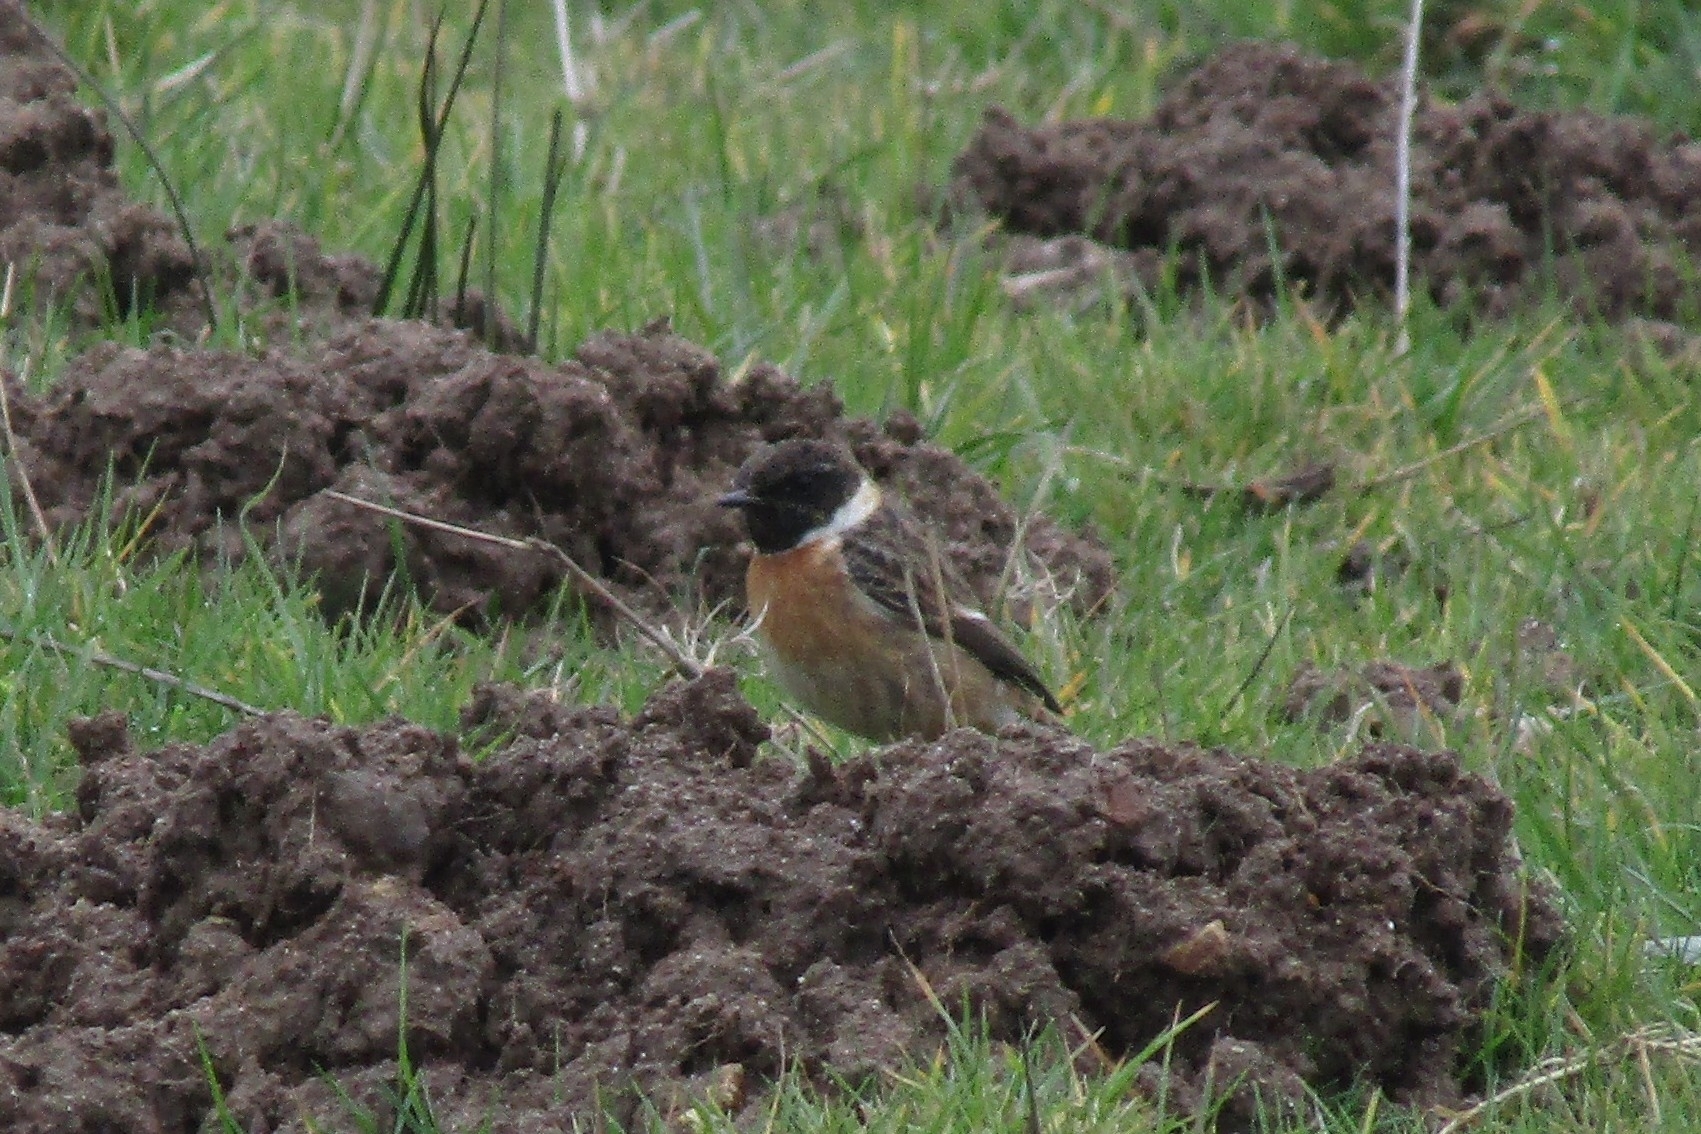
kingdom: Animalia
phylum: Chordata
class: Aves
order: Passeriformes
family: Muscicapidae
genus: Saxicola
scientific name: Saxicola rubicola
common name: European stonechat
